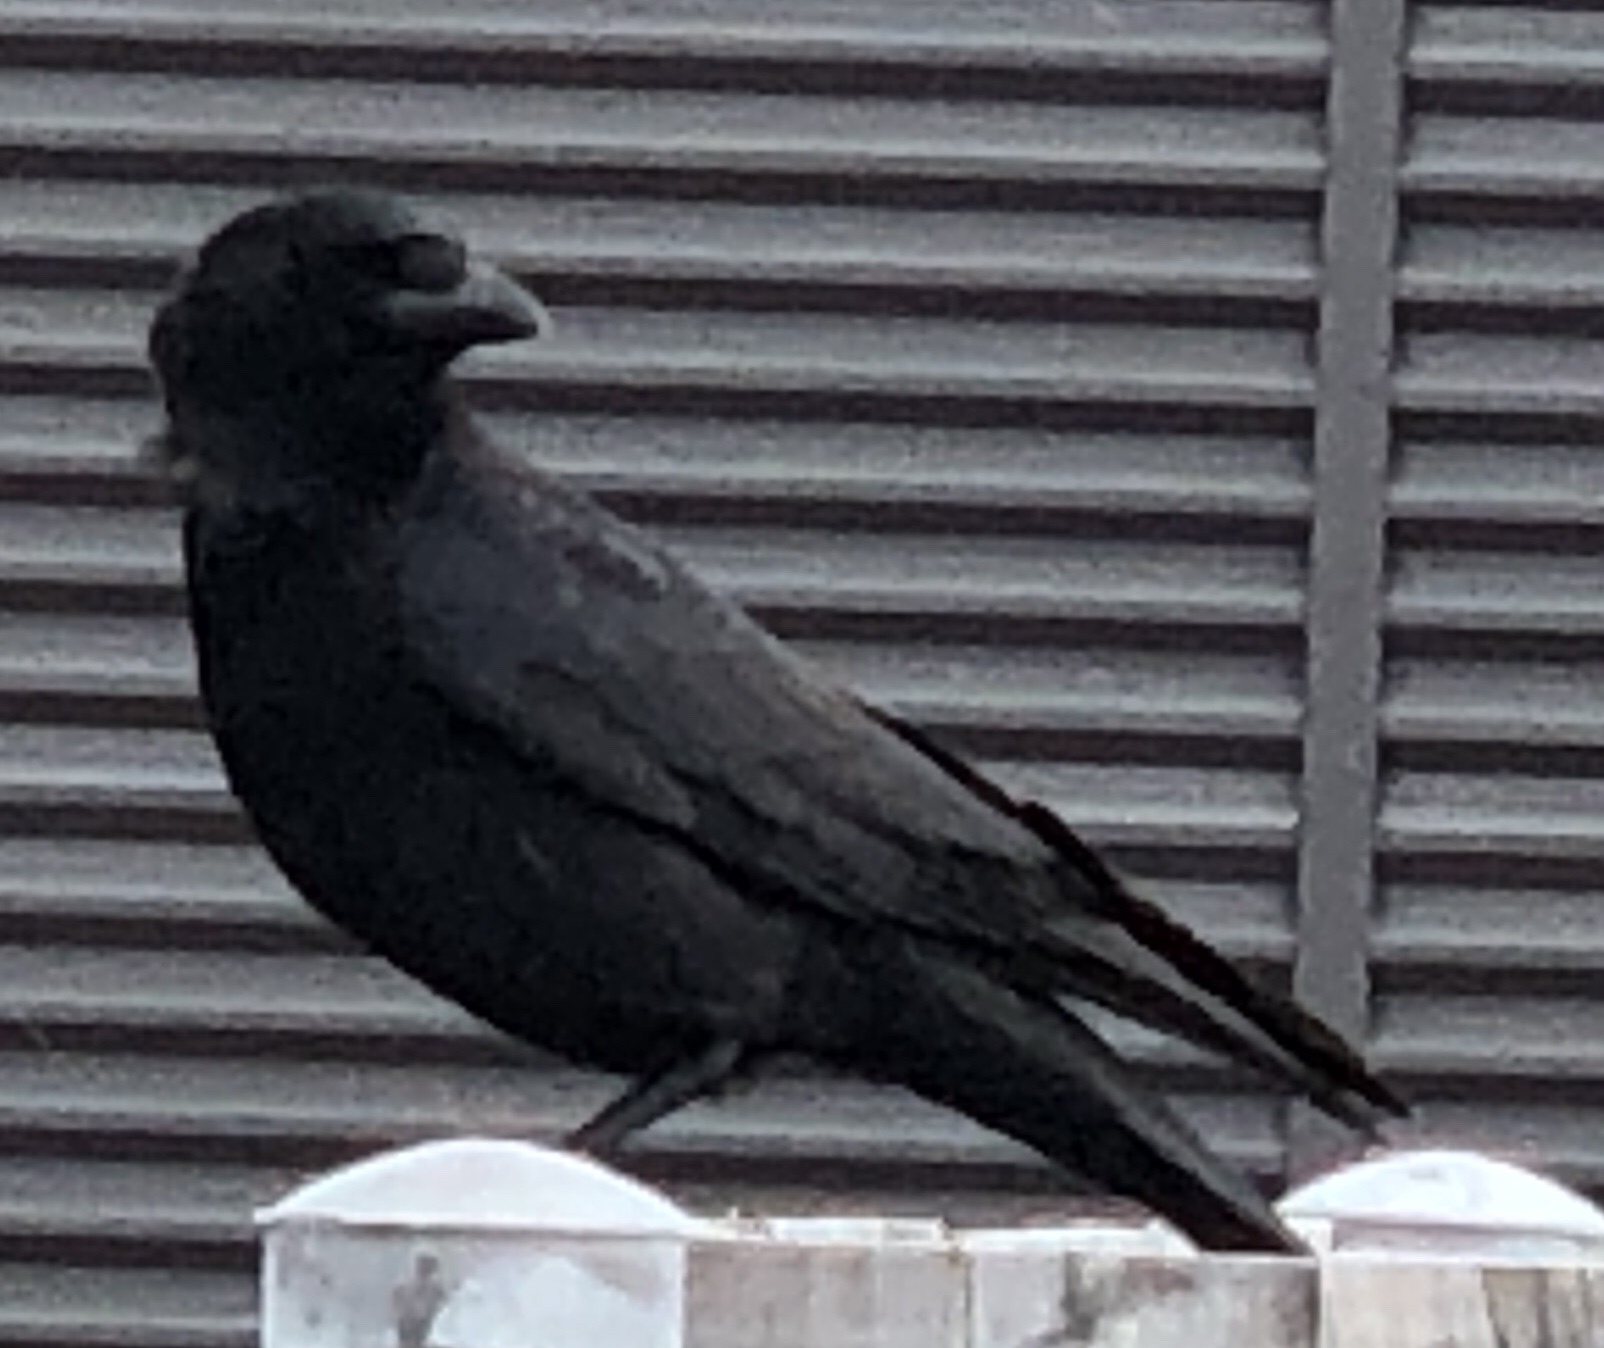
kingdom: Animalia
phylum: Chordata
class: Aves
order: Passeriformes
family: Corvidae
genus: Corvus
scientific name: Corvus brachyrhynchos
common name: American crow
